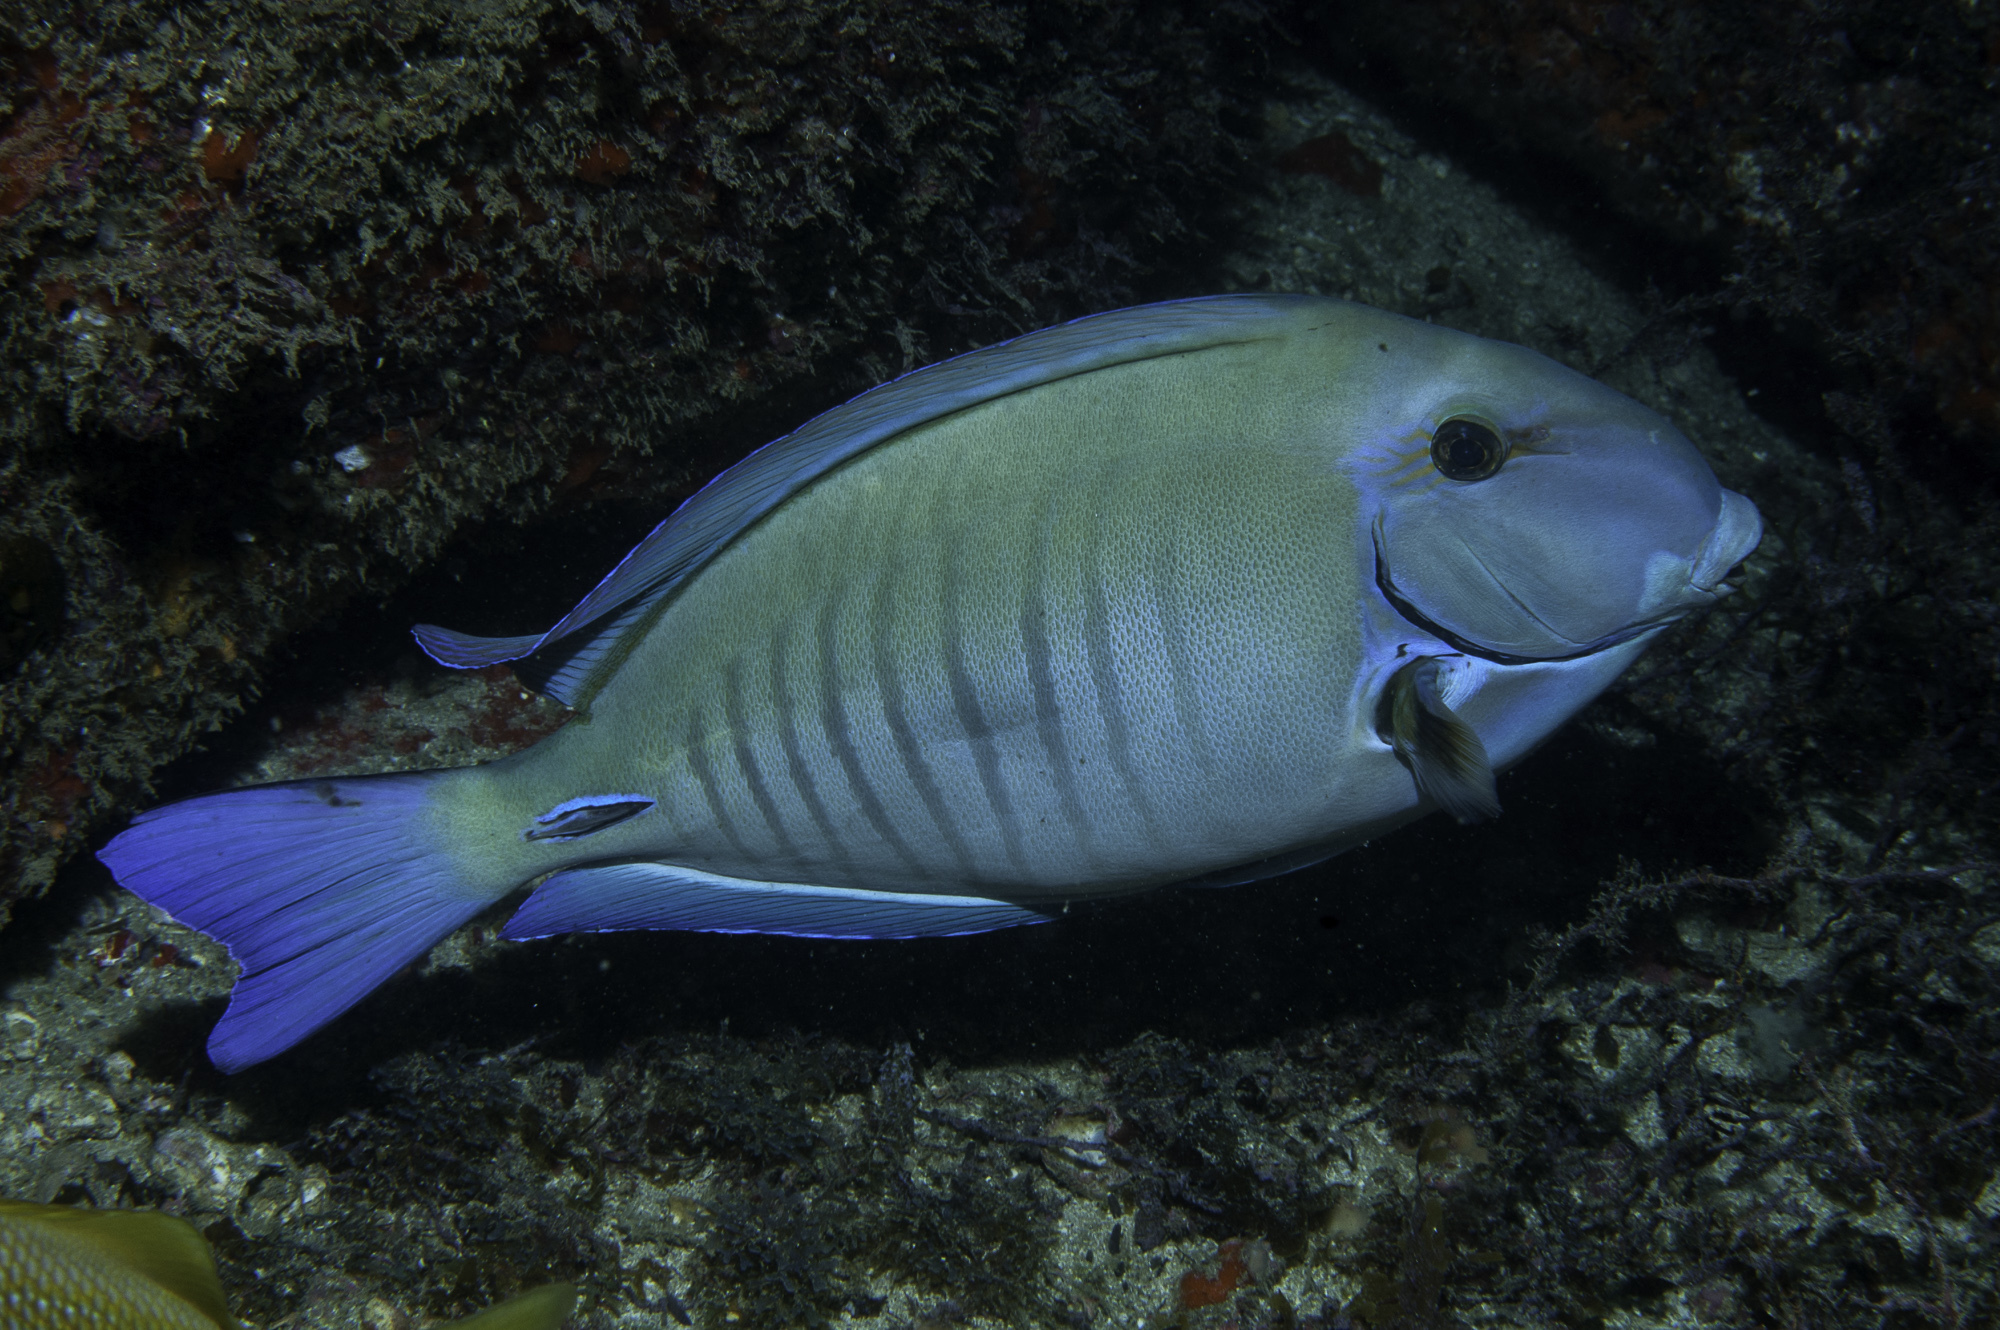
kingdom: Animalia
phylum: Chordata
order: Perciformes
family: Acanthuridae
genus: Acanthurus
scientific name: Acanthurus chirurgus
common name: Doctorfish
